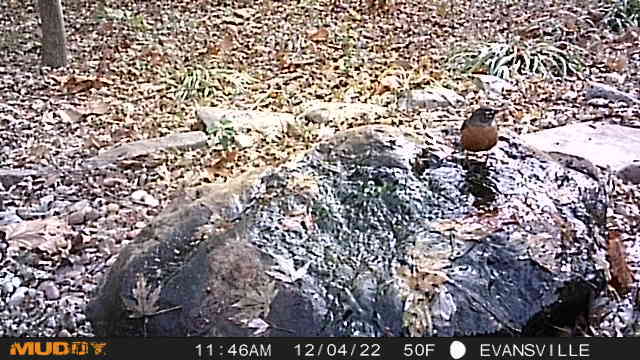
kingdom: Animalia
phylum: Chordata
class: Aves
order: Passeriformes
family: Turdidae
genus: Turdus
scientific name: Turdus migratorius
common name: American robin
